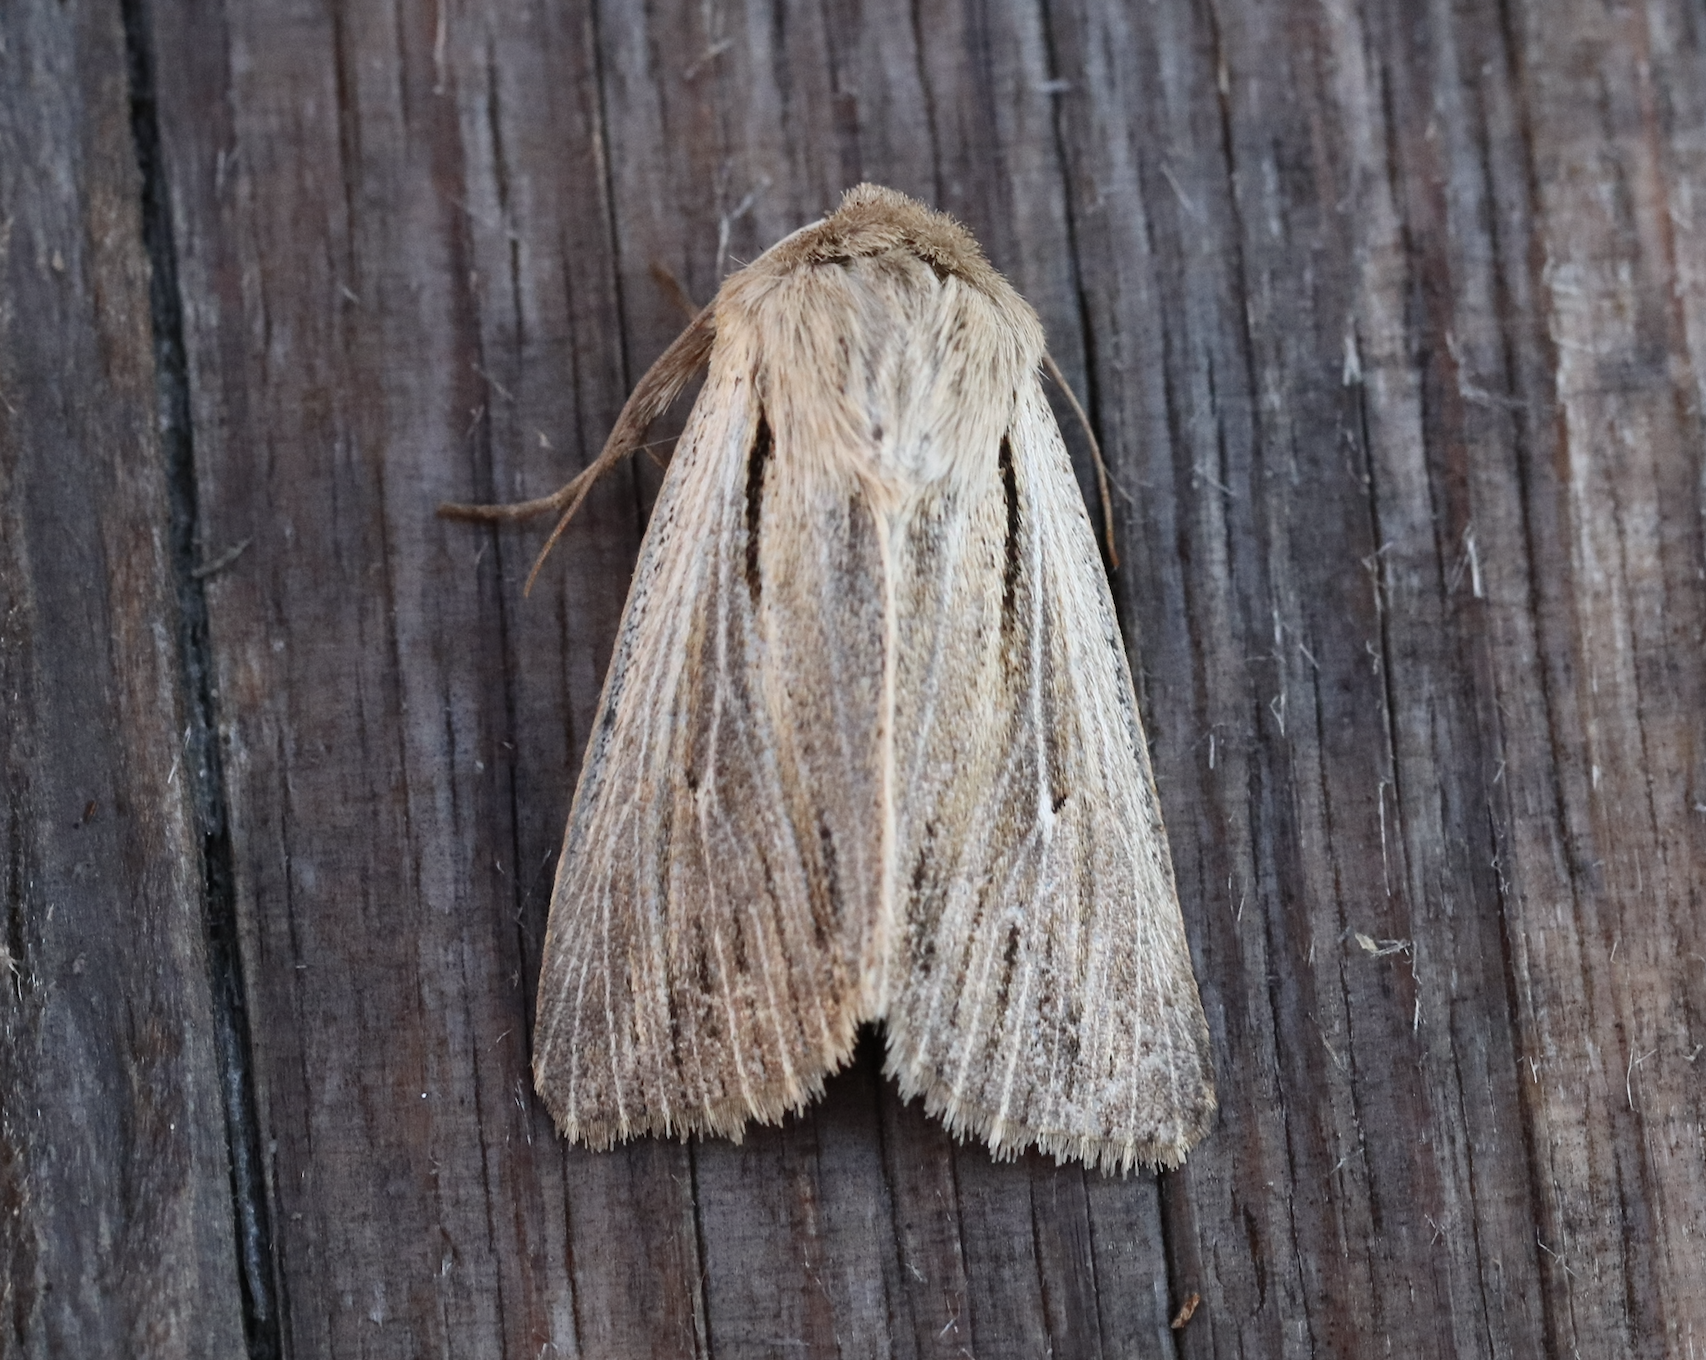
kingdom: Animalia
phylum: Arthropoda
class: Insecta
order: Lepidoptera
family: Noctuidae
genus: Leucania
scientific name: Leucania comma
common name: Shoulder-striped wainscot
